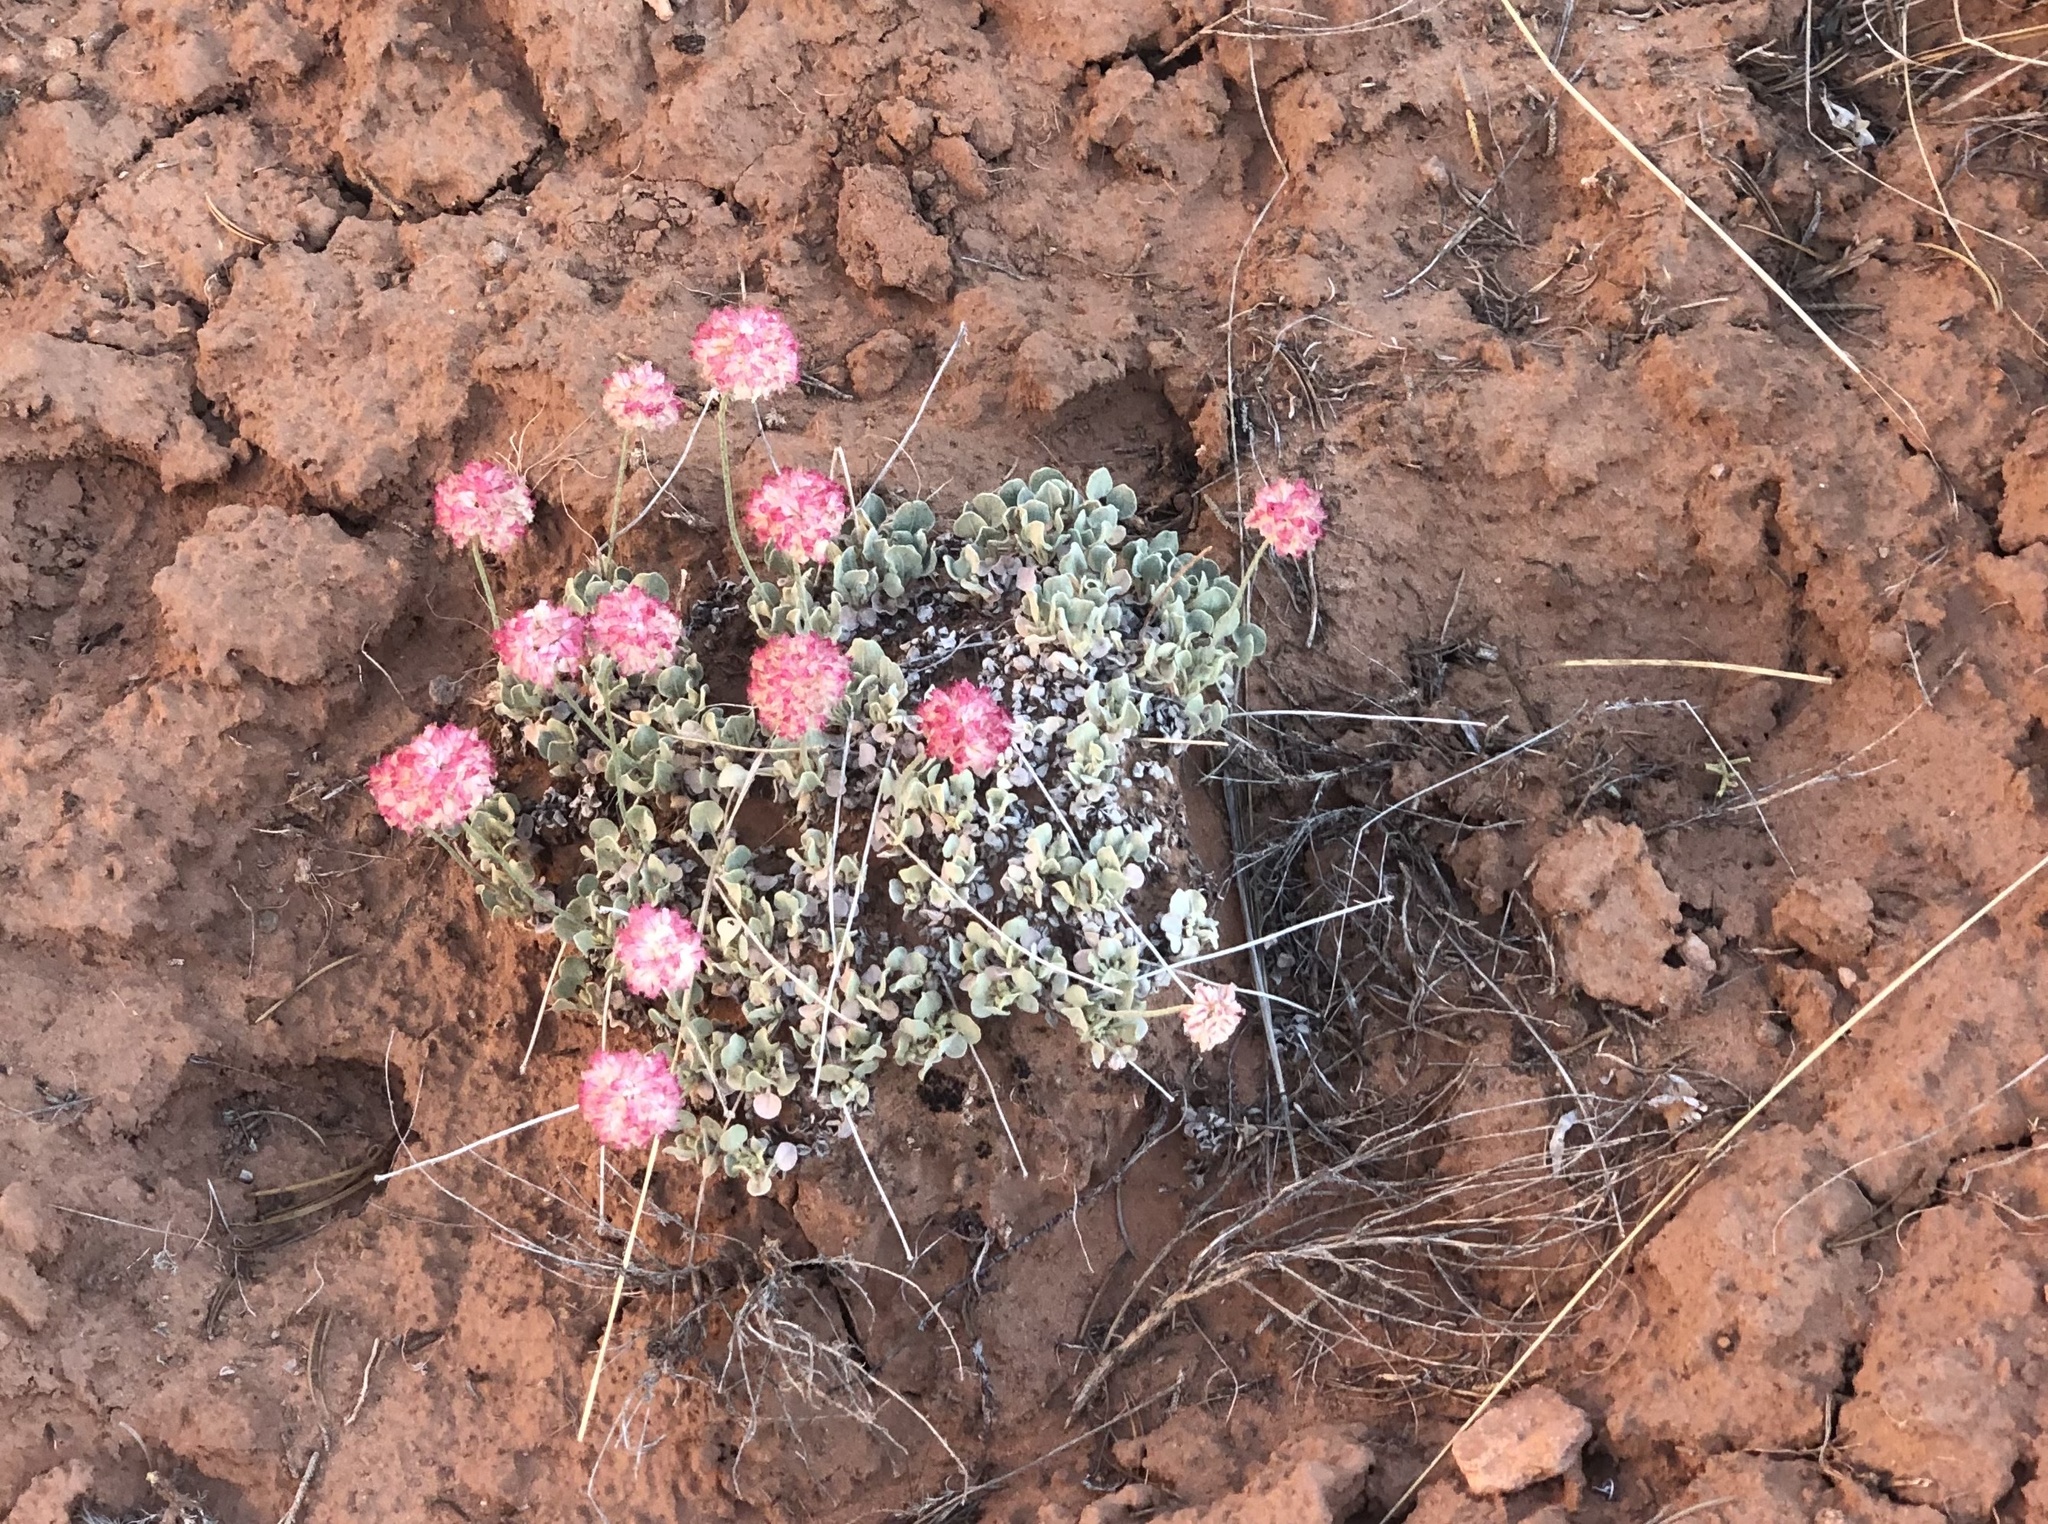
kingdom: Plantae
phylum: Tracheophyta
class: Magnoliopsida
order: Caryophyllales
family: Polygonaceae
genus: Eriogonum
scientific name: Eriogonum ovalifolium
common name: Cushion buckwheat
